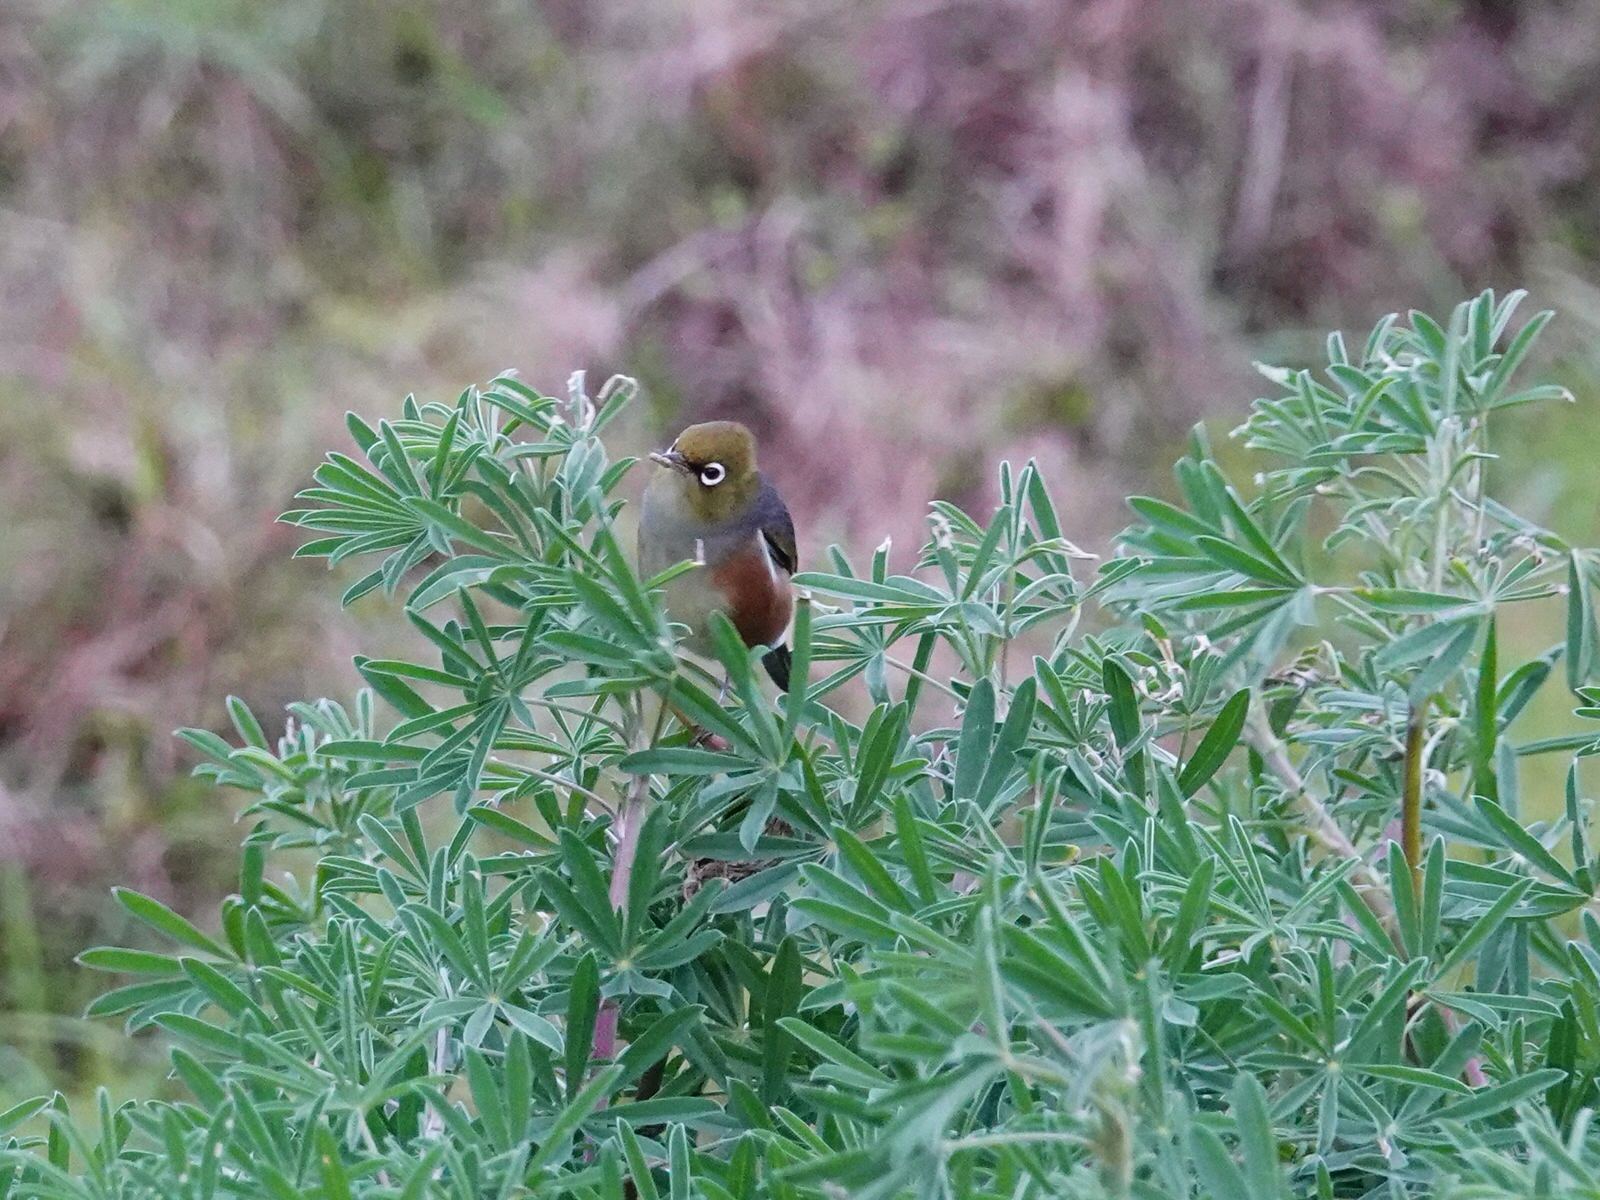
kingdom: Animalia
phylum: Chordata
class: Aves
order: Passeriformes
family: Zosteropidae
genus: Zosterops
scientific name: Zosterops lateralis
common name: Silvereye
